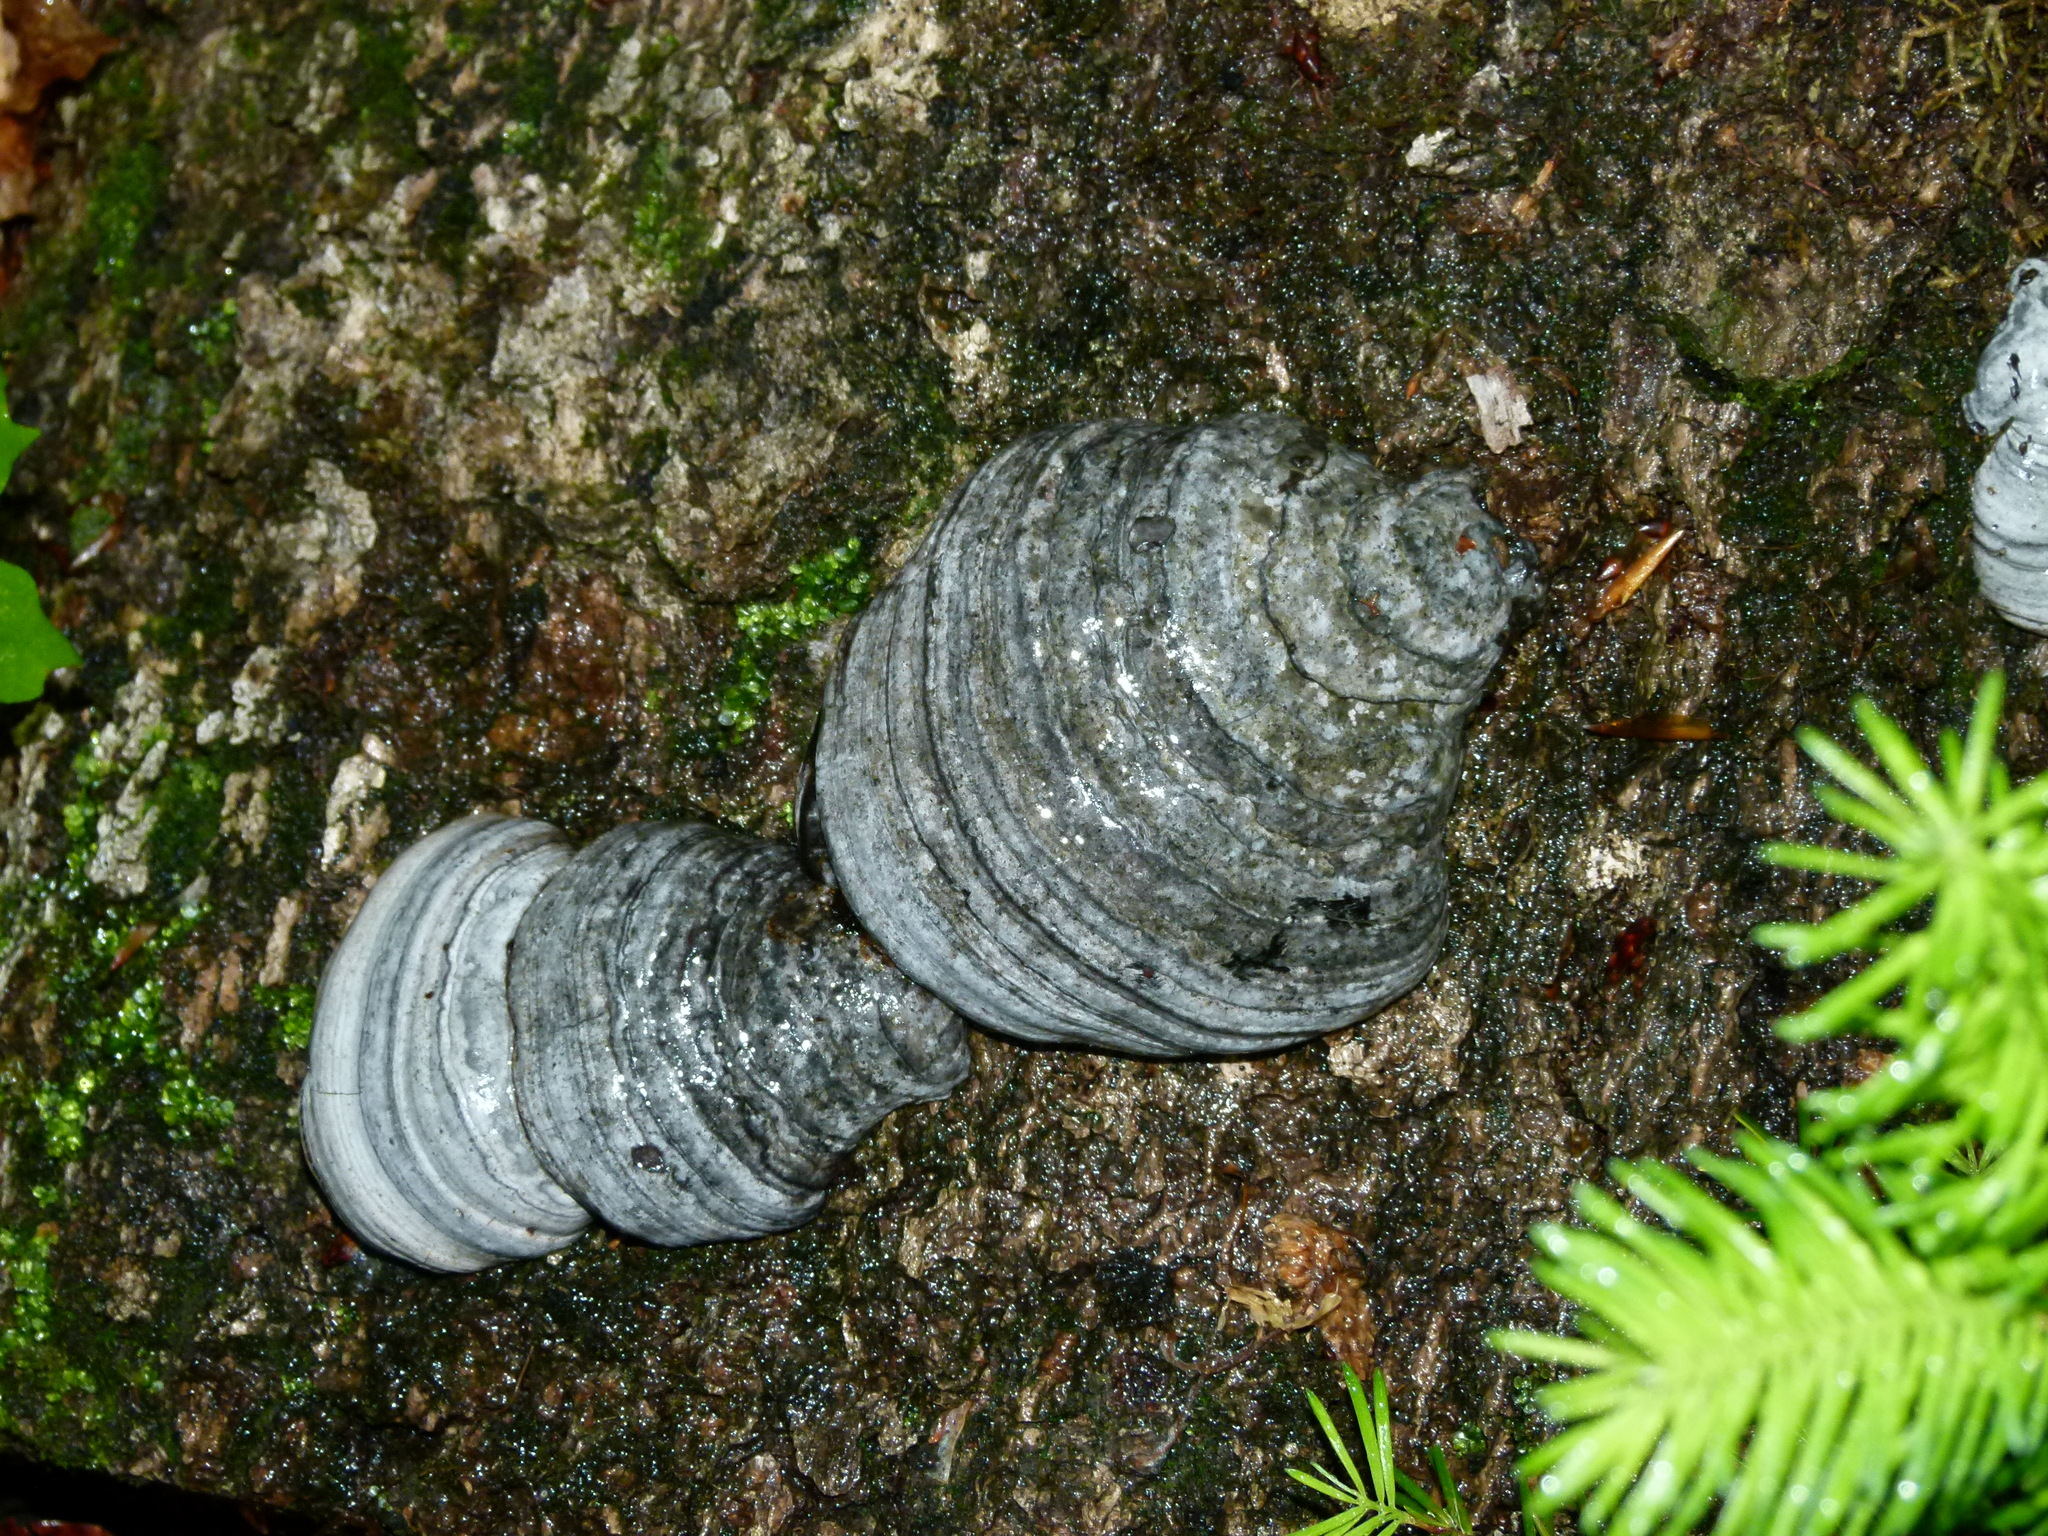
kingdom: Fungi
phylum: Basidiomycota
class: Agaricomycetes
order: Polyporales
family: Polyporaceae
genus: Fomes
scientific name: Fomes fomentarius
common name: Hoof fungus
